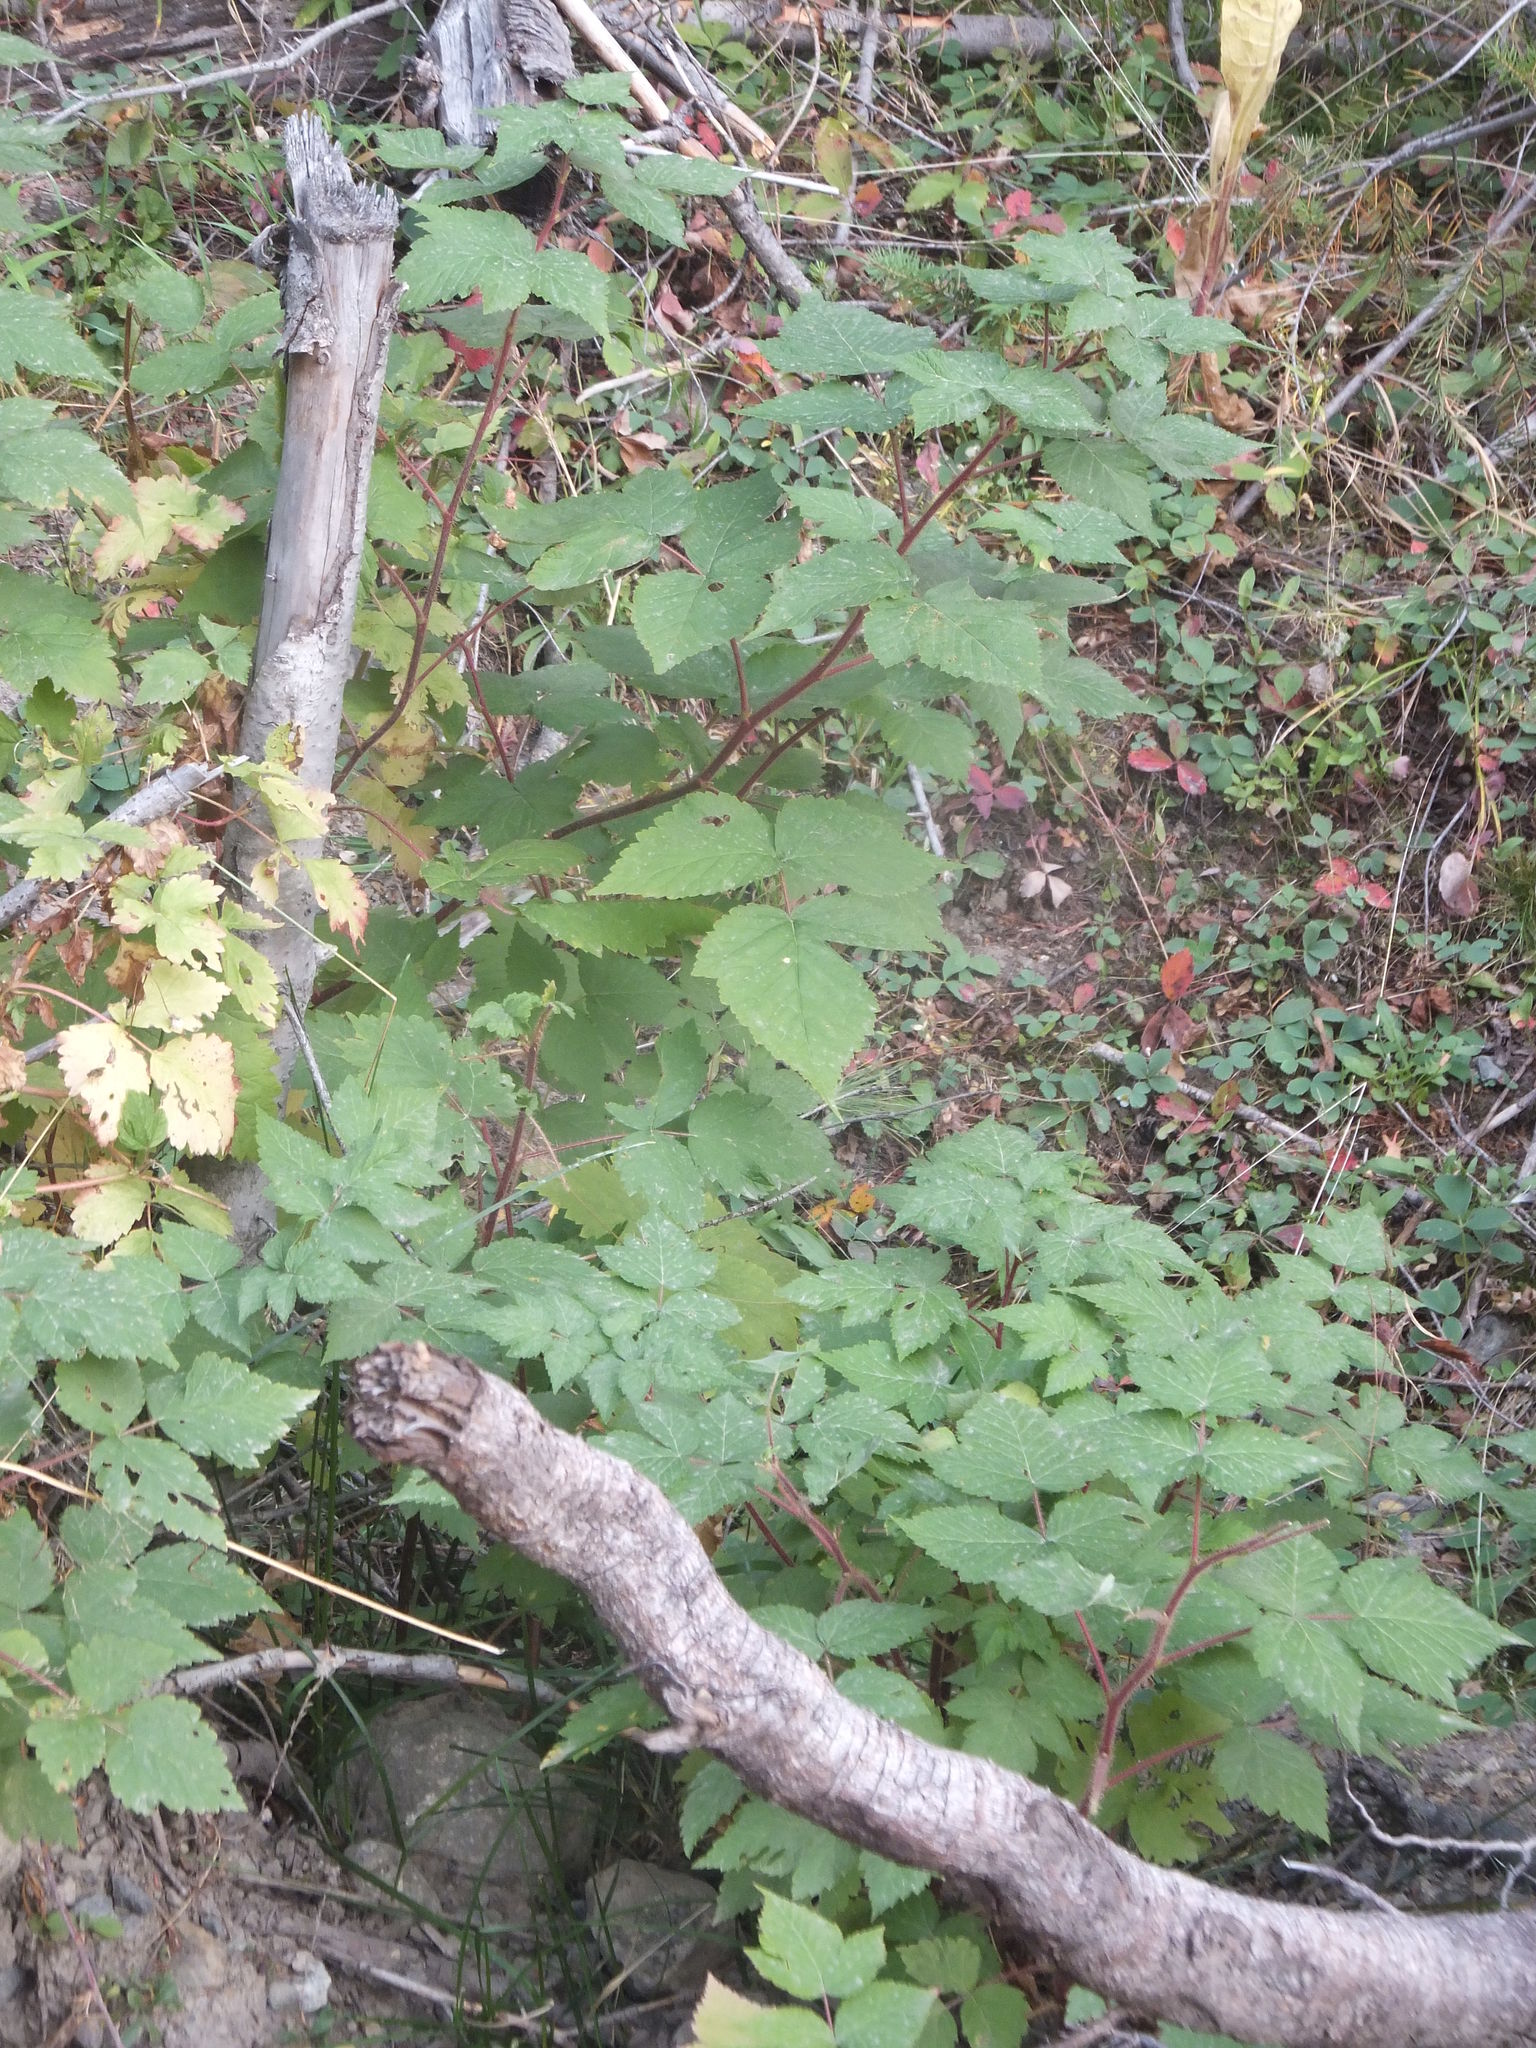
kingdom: Plantae
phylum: Tracheophyta
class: Magnoliopsida
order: Rosales
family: Rosaceae
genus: Rubus
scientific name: Rubus idaeus
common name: Raspberry
